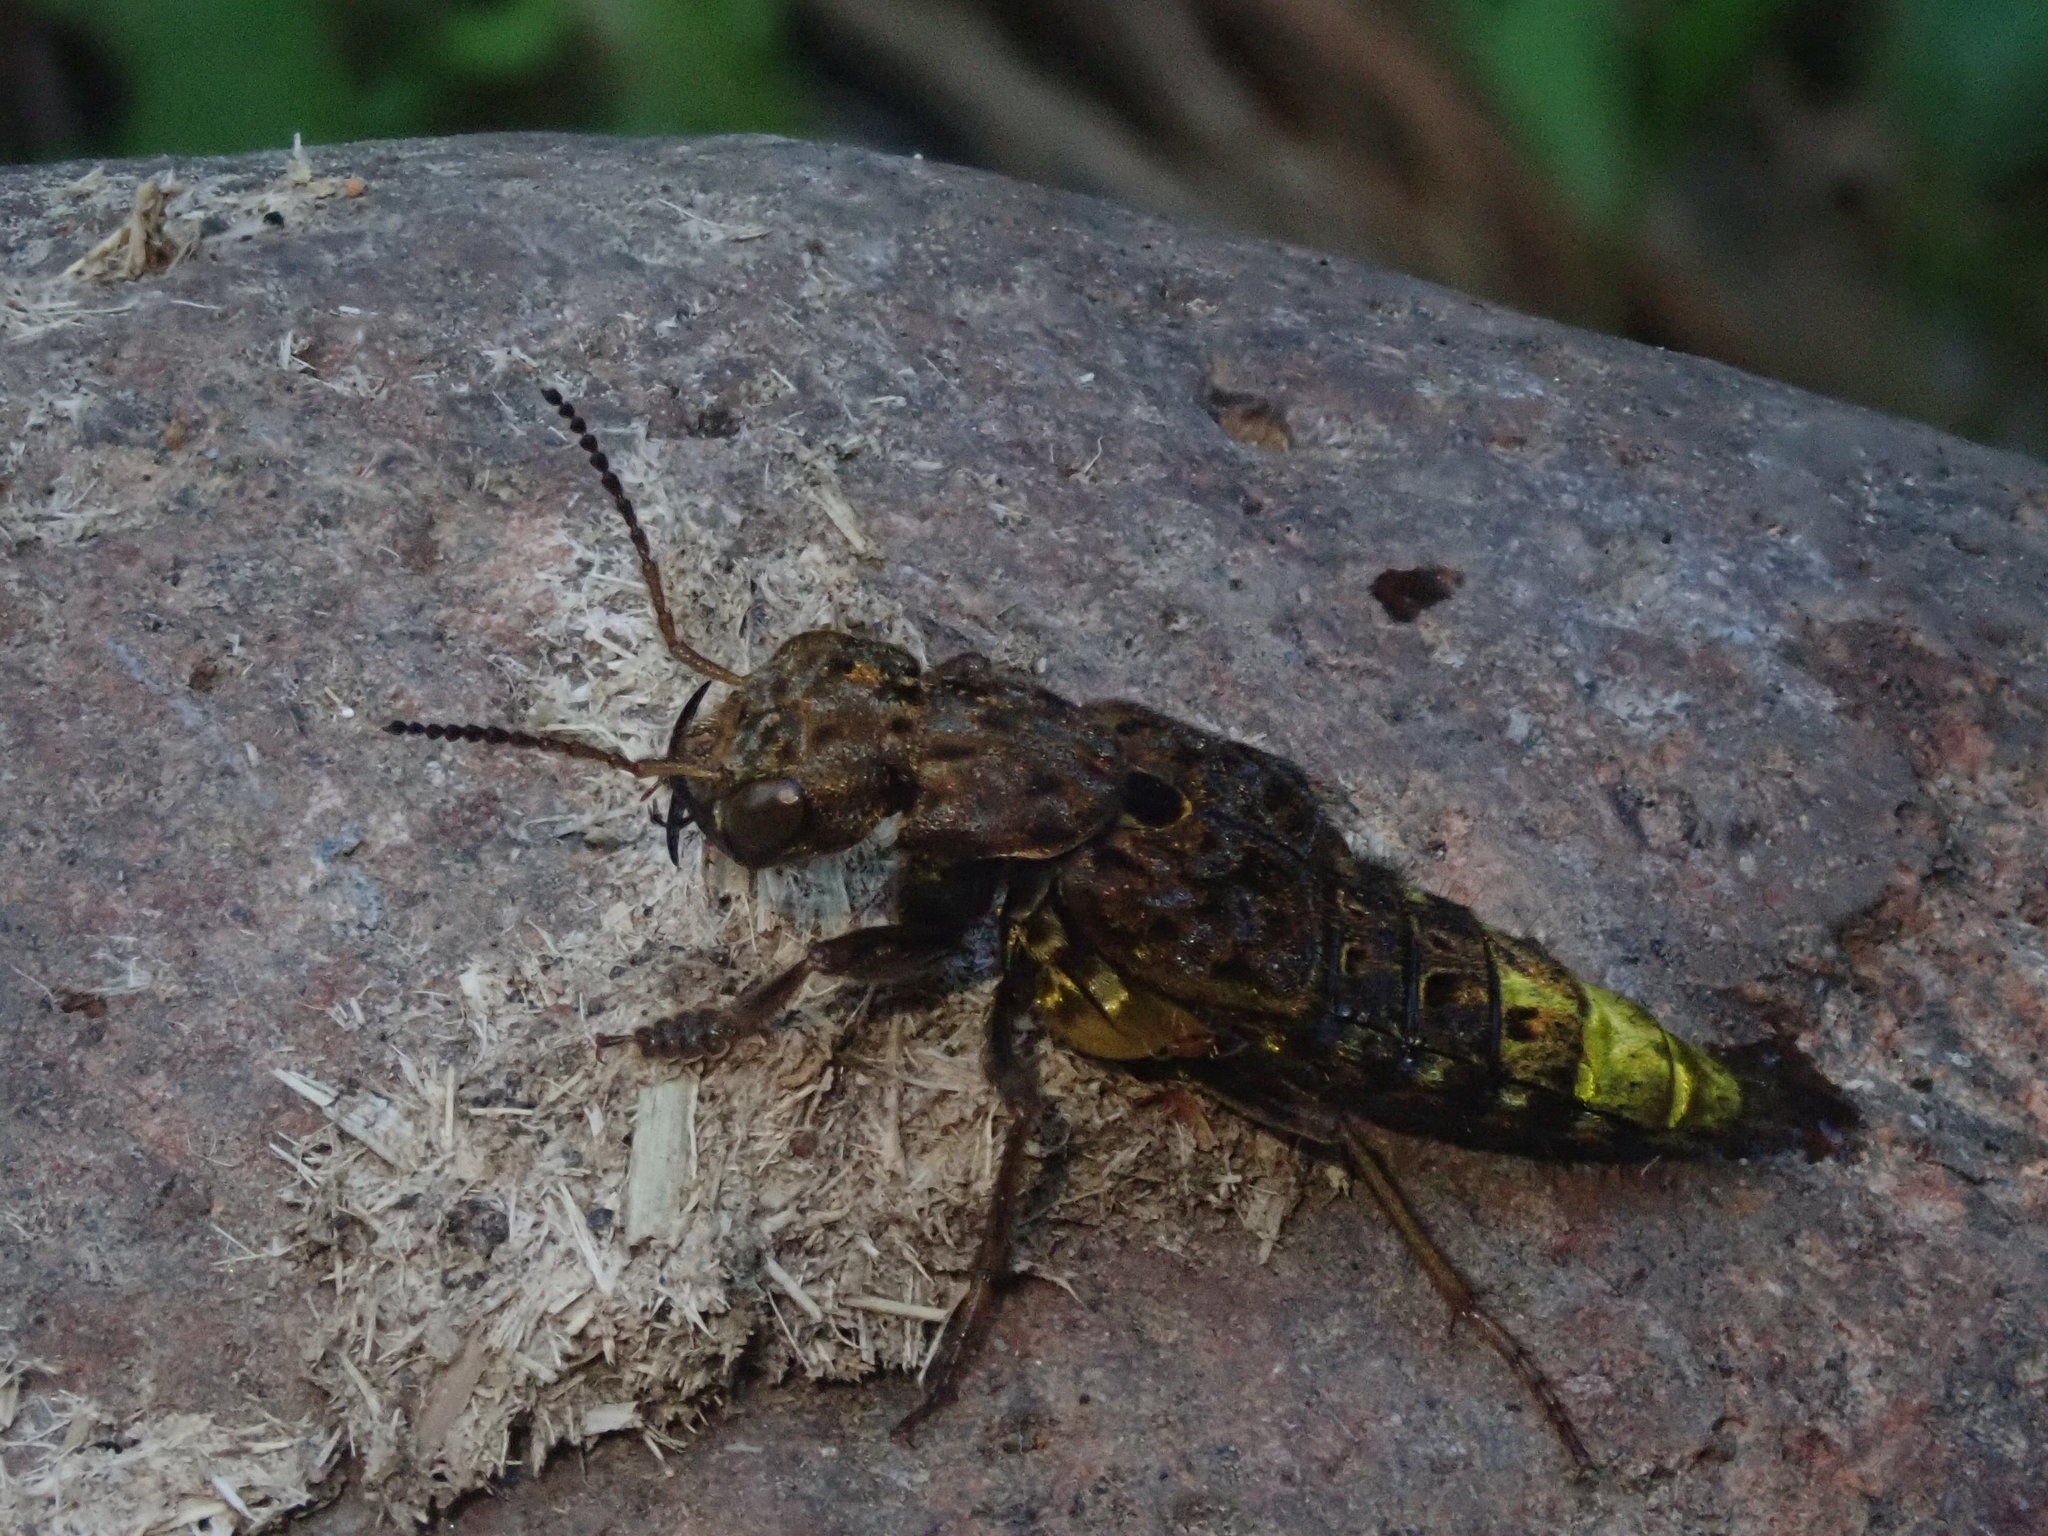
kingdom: Animalia
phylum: Arthropoda
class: Insecta
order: Coleoptera
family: Staphylinidae
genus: Ontholestes
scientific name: Ontholestes cingulatus
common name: Gold-and-brown rove beetle
